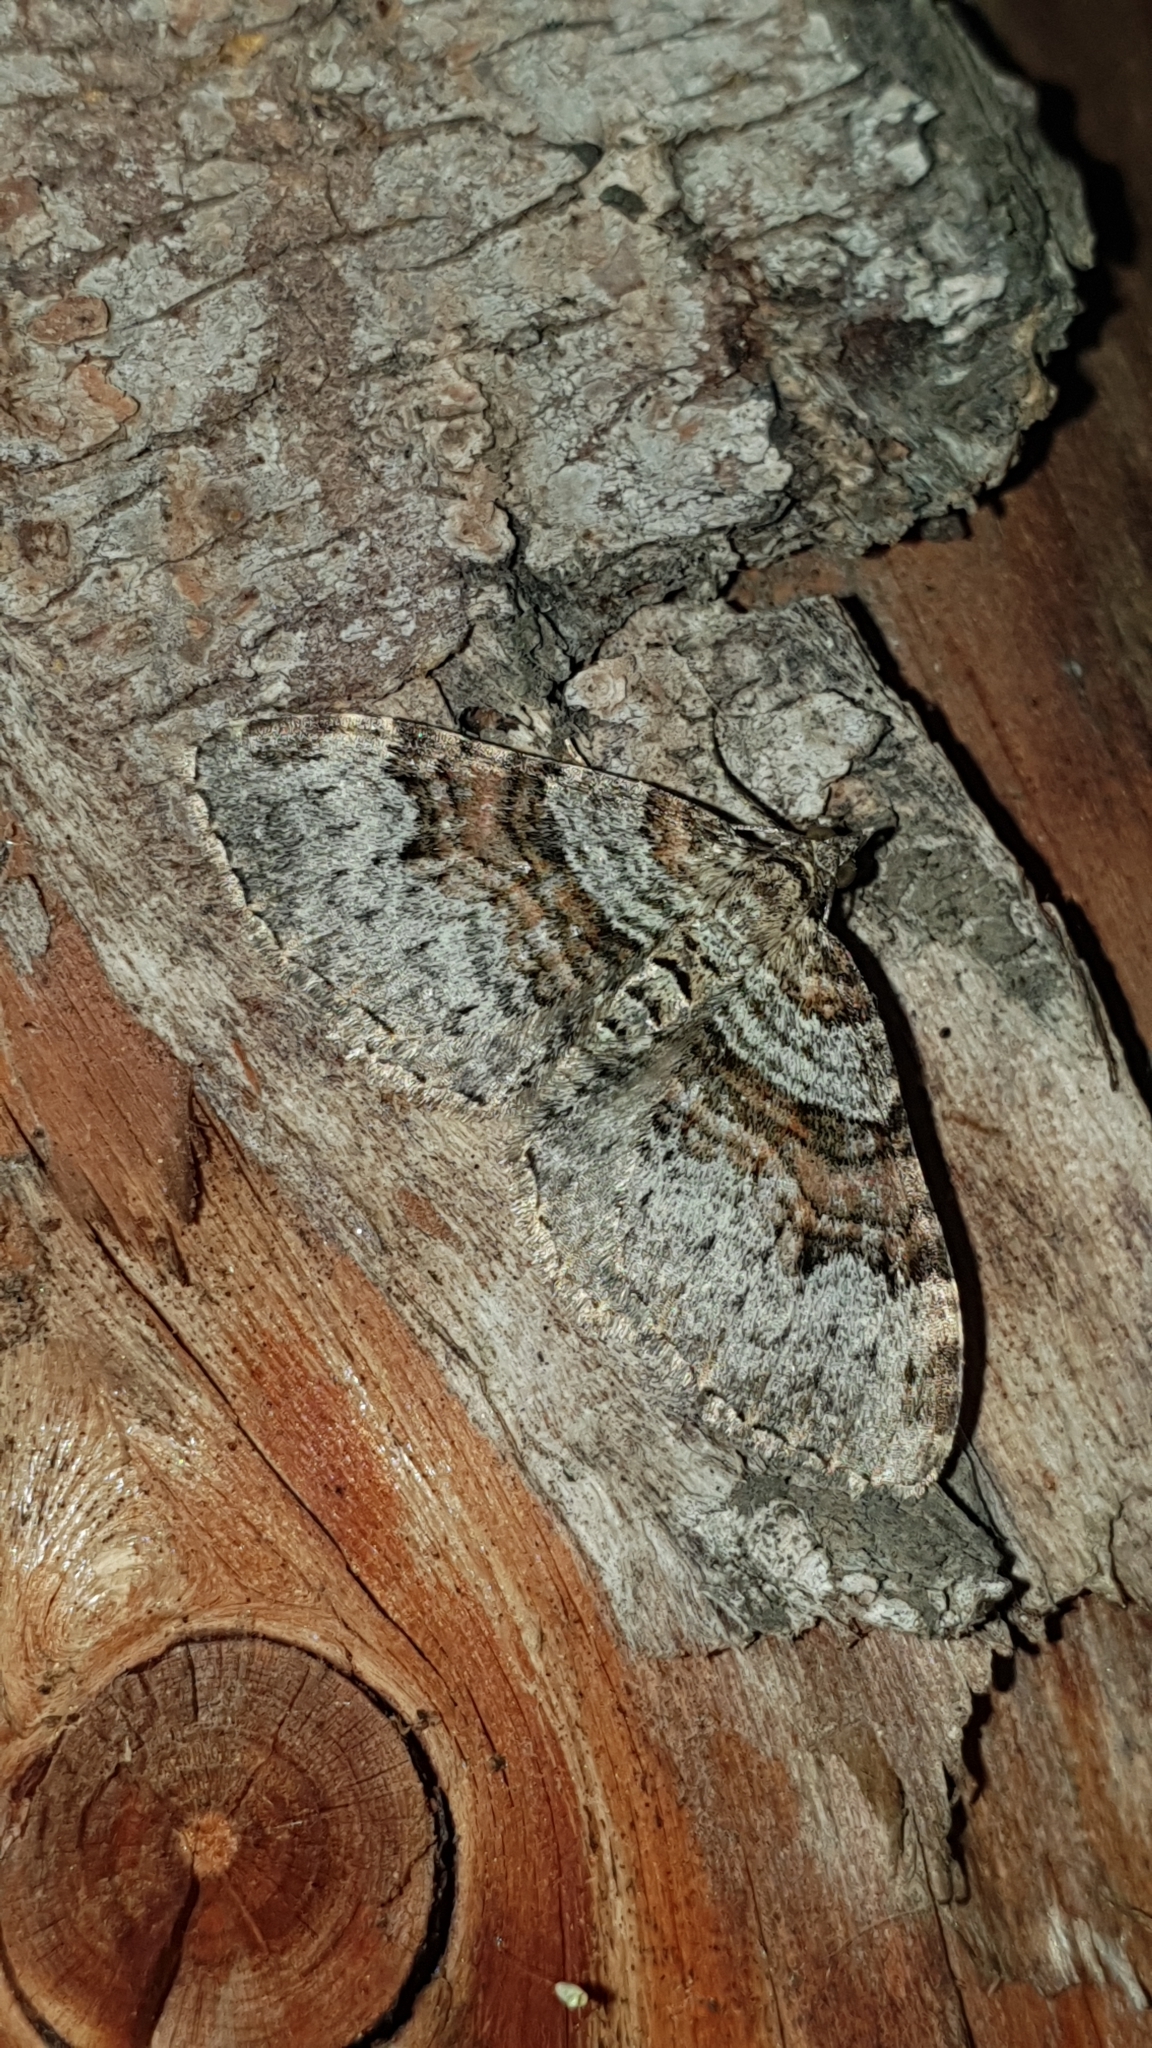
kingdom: Animalia
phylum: Arthropoda
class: Insecta
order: Lepidoptera
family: Geometridae
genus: Xanthorhoe
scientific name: Xanthorhoe designata
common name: Flame carpet
